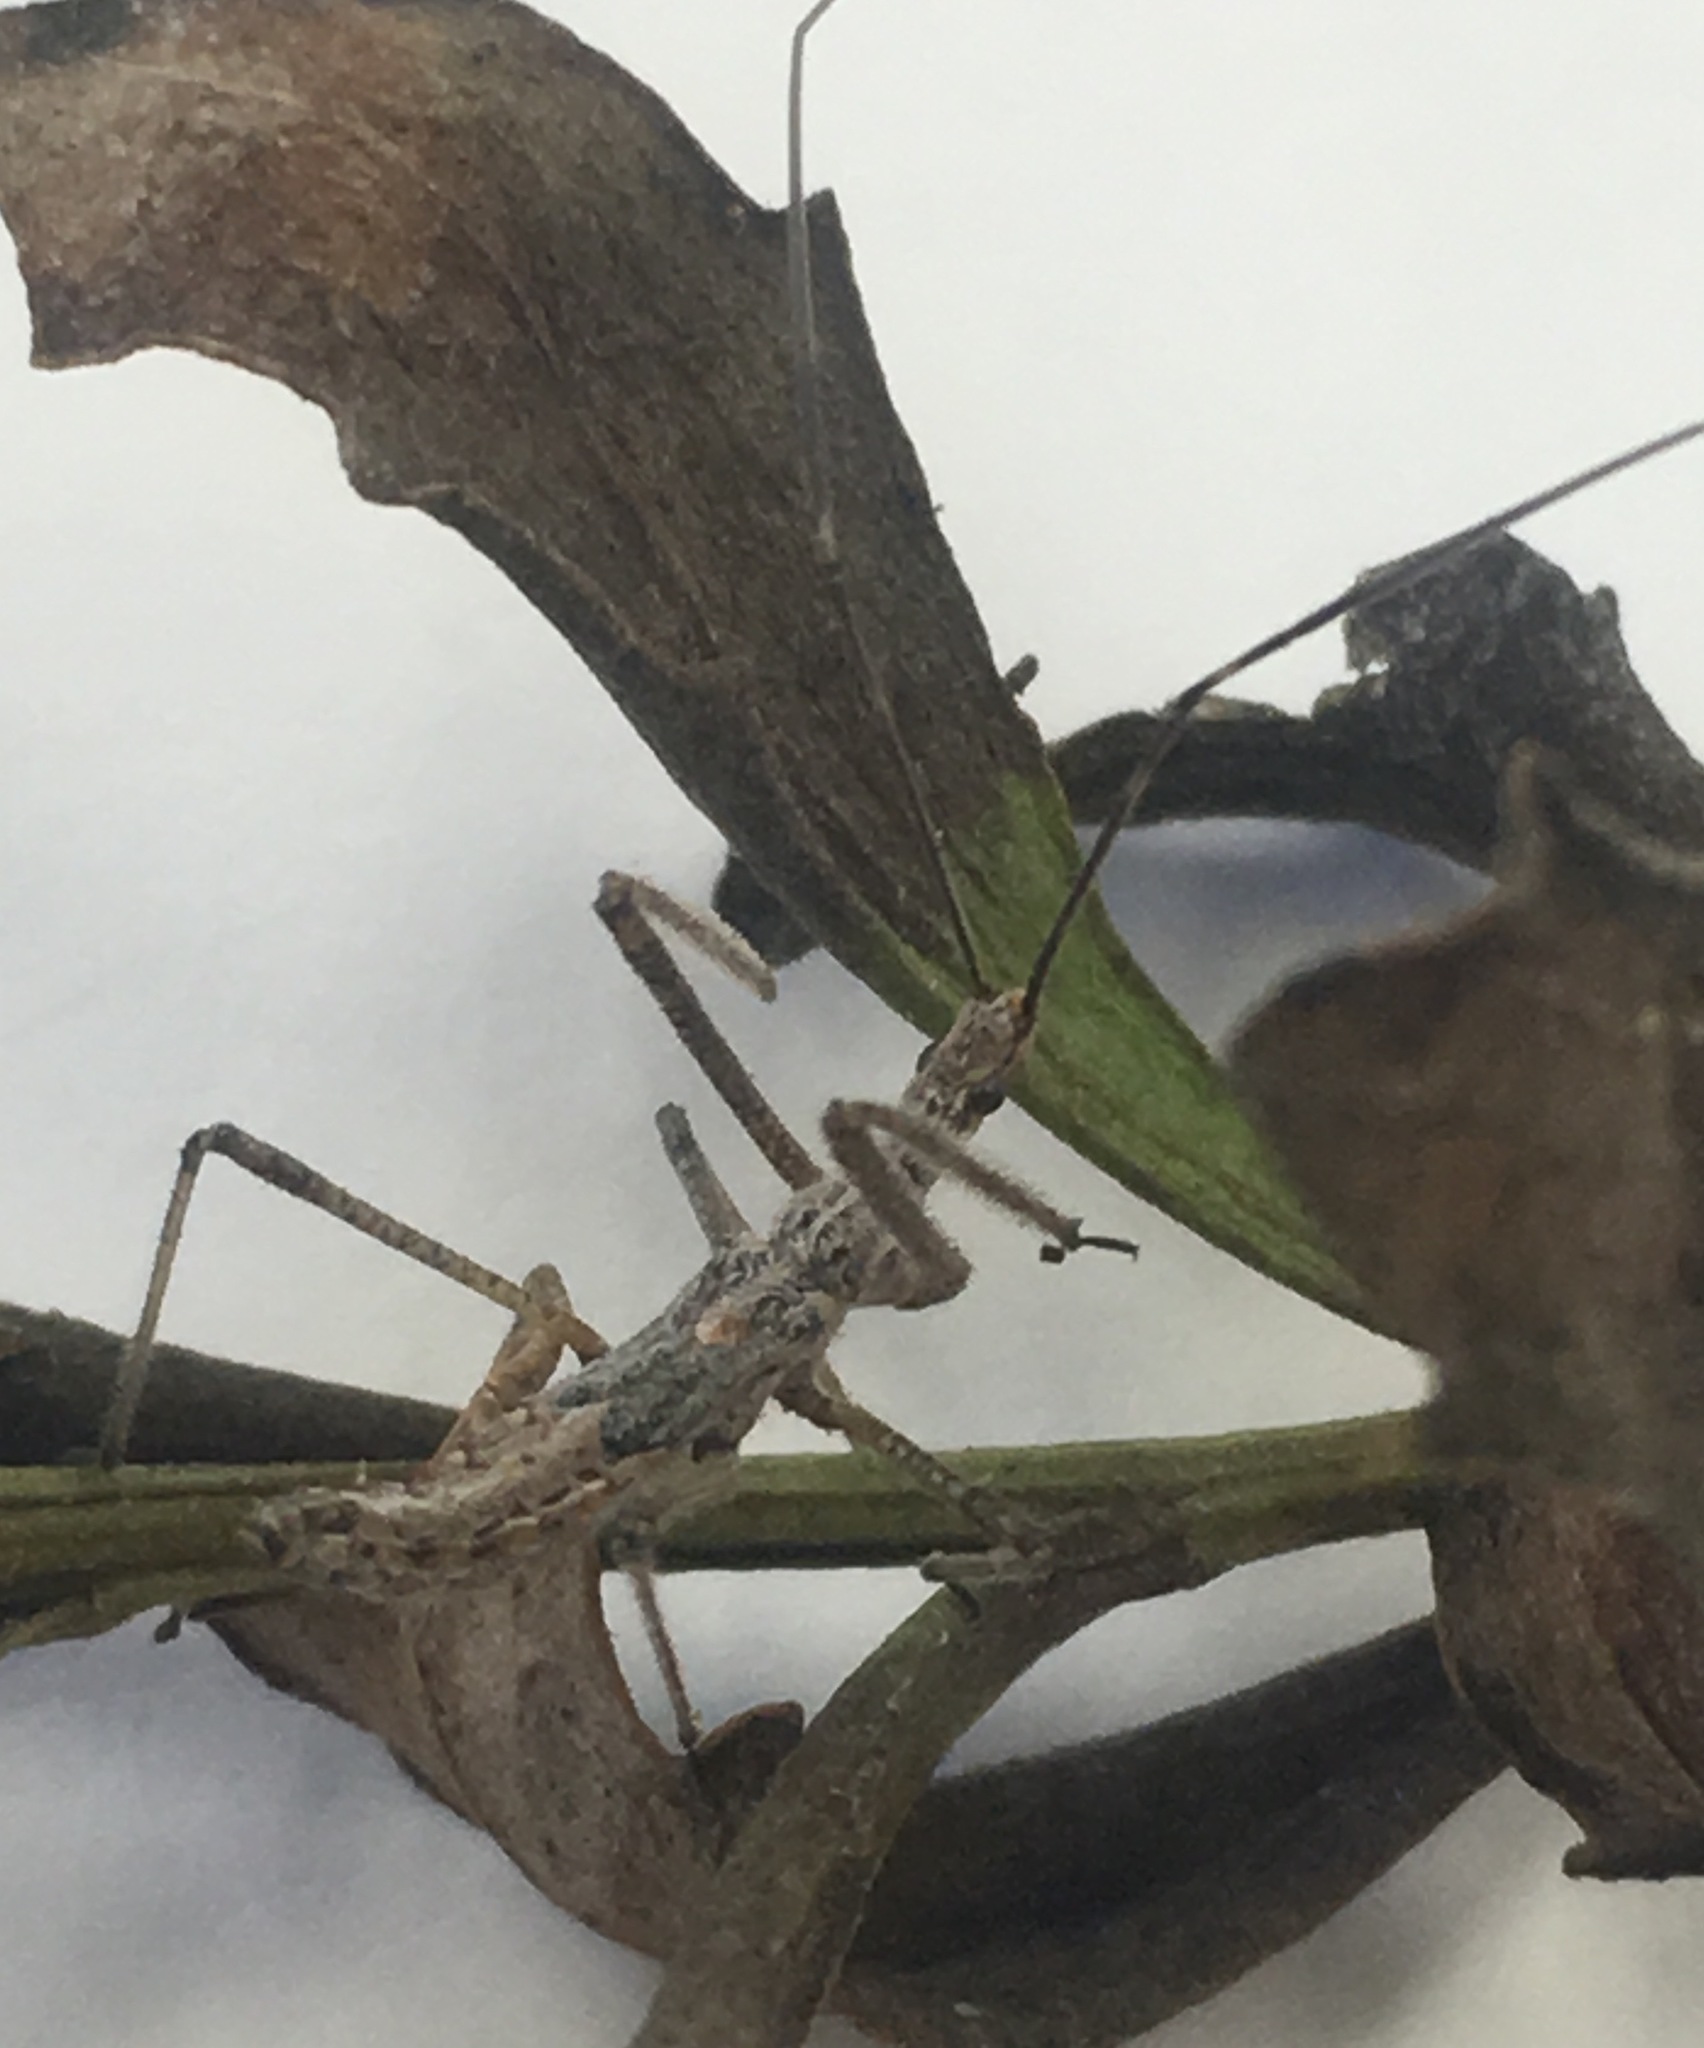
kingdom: Animalia
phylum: Arthropoda
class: Insecta
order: Hemiptera
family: Reduviidae
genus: Zelus
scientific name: Zelus tetracanthus
